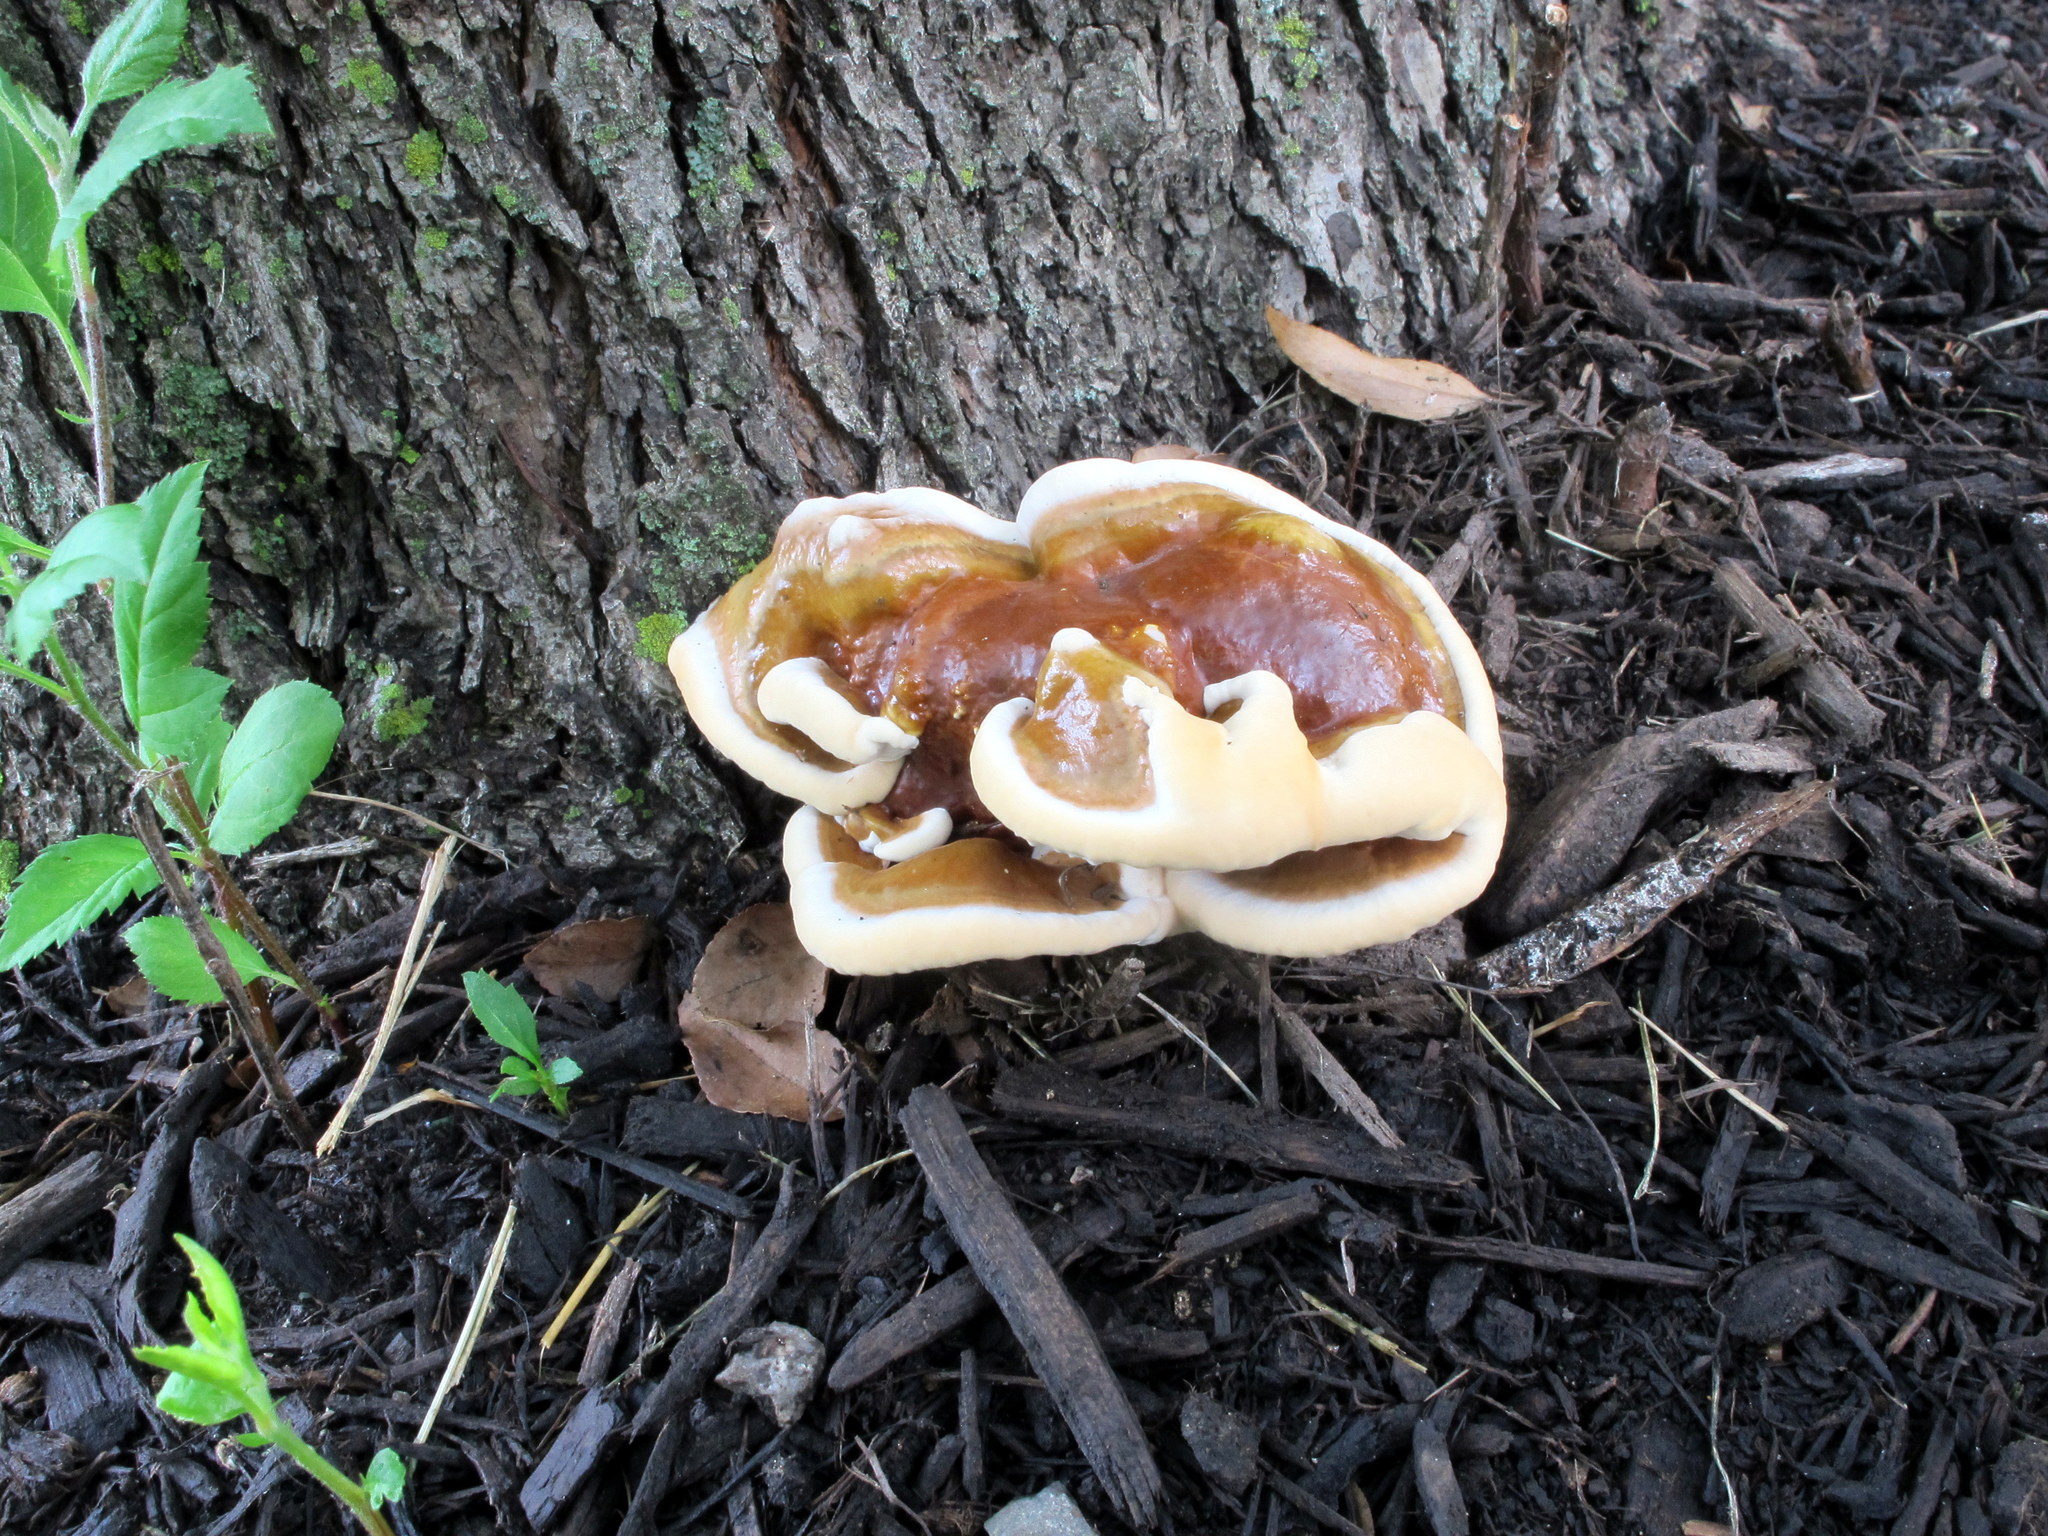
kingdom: Fungi
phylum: Basidiomycota
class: Agaricomycetes
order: Polyporales
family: Polyporaceae
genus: Ganoderma
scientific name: Ganoderma resinaceum
